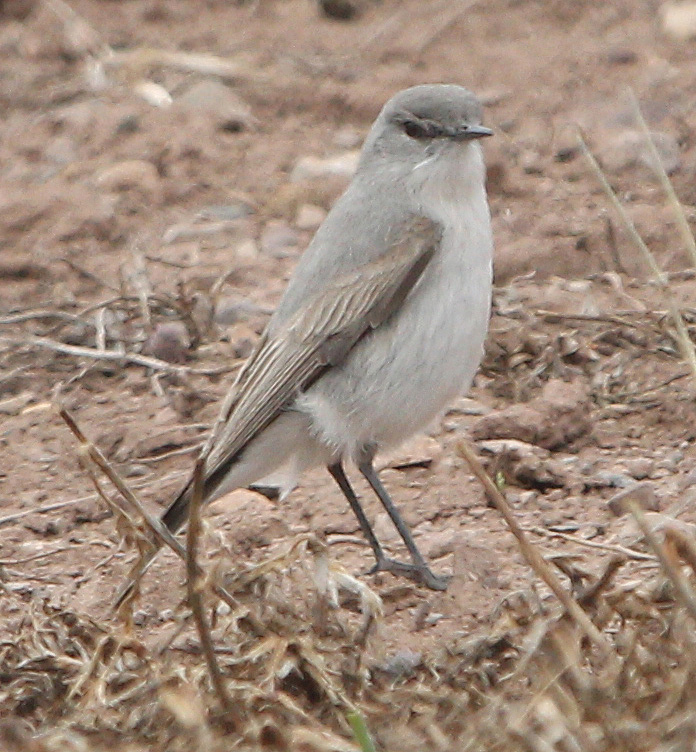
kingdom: Animalia
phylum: Chordata
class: Aves
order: Passeriformes
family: Tyrannidae
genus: Muscisaxicola
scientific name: Muscisaxicola cinereus
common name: Cinereous ground tyrant
